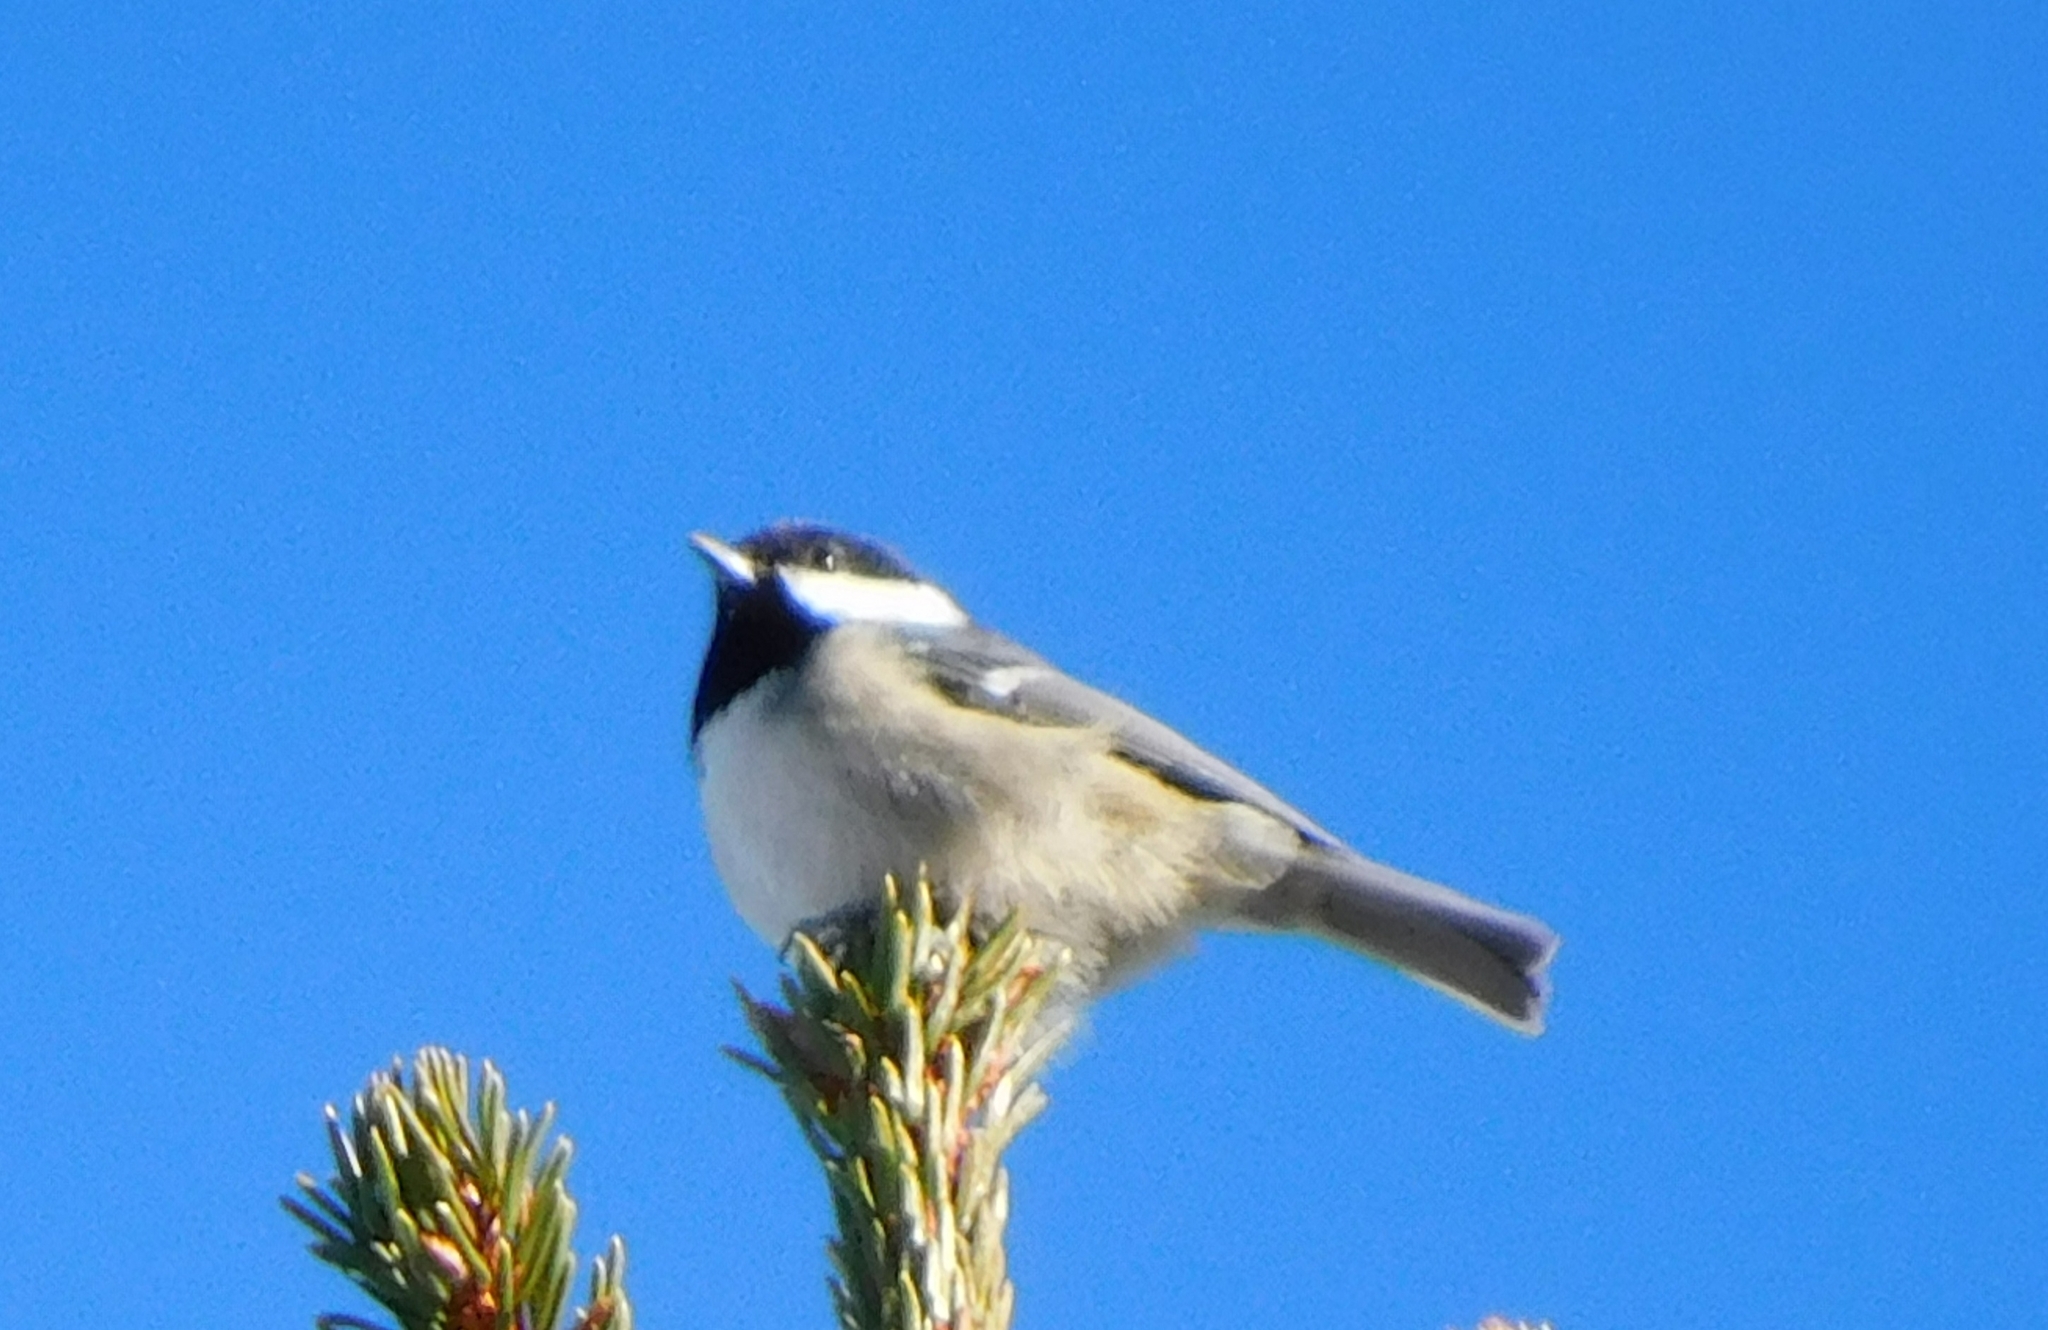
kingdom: Animalia
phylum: Chordata
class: Aves
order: Passeriformes
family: Paridae
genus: Periparus
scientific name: Periparus ater
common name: Coal tit
